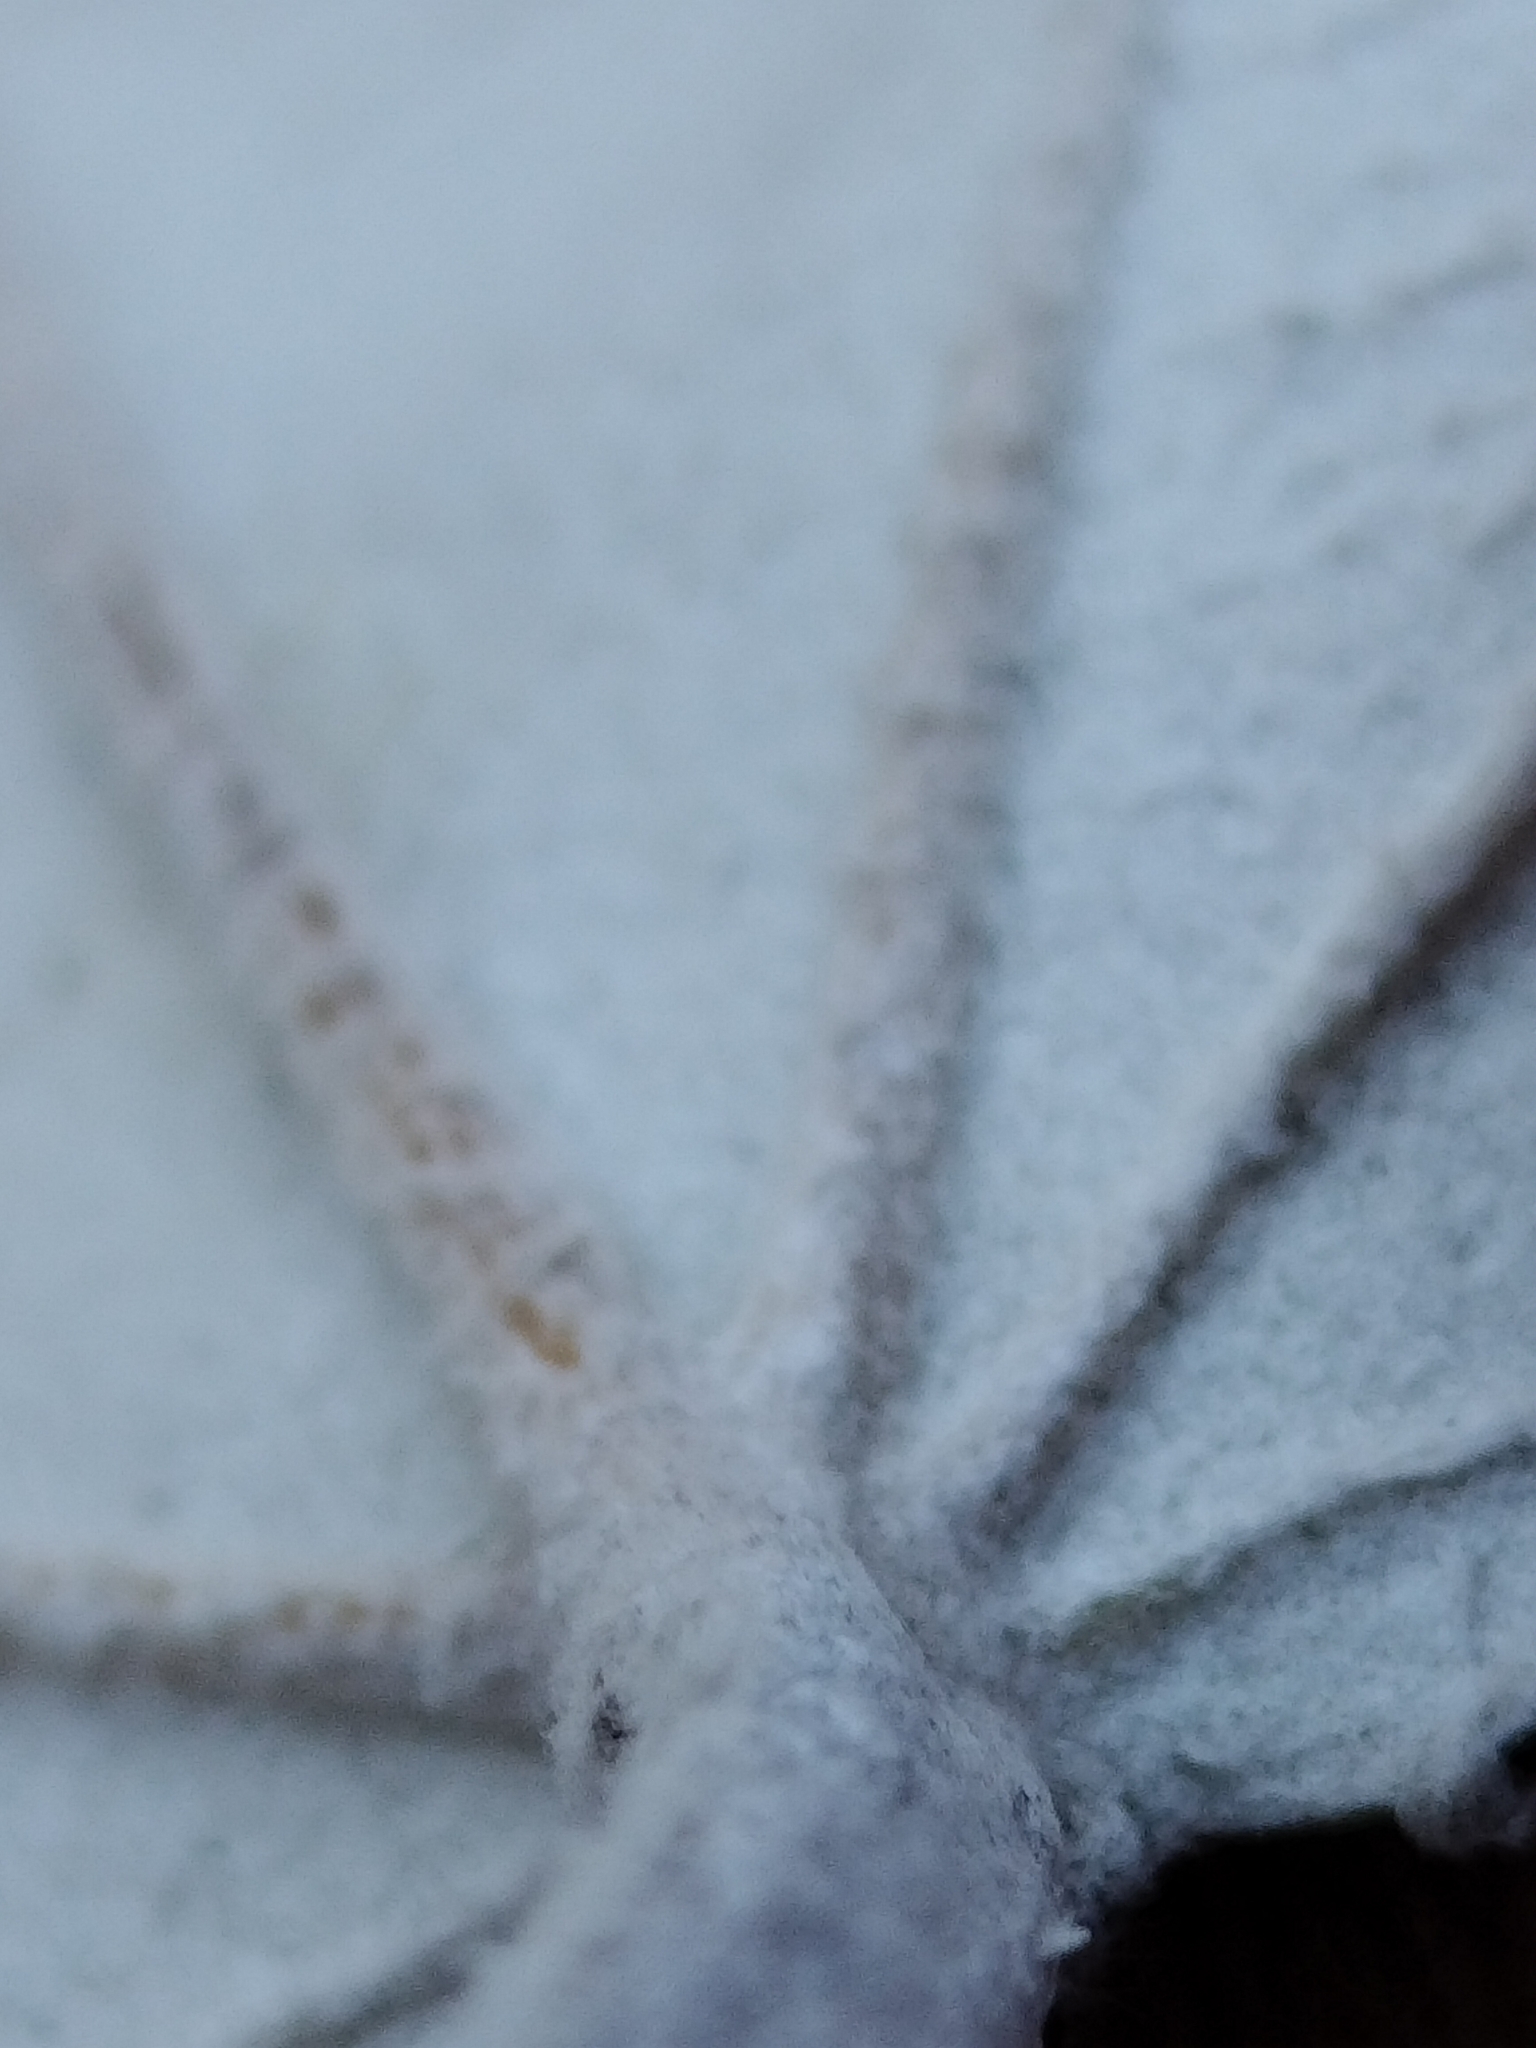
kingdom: Plantae
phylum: Tracheophyta
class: Magnoliopsida
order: Malpighiales
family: Salicaceae
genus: Populus
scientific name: Populus alba
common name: White poplar
